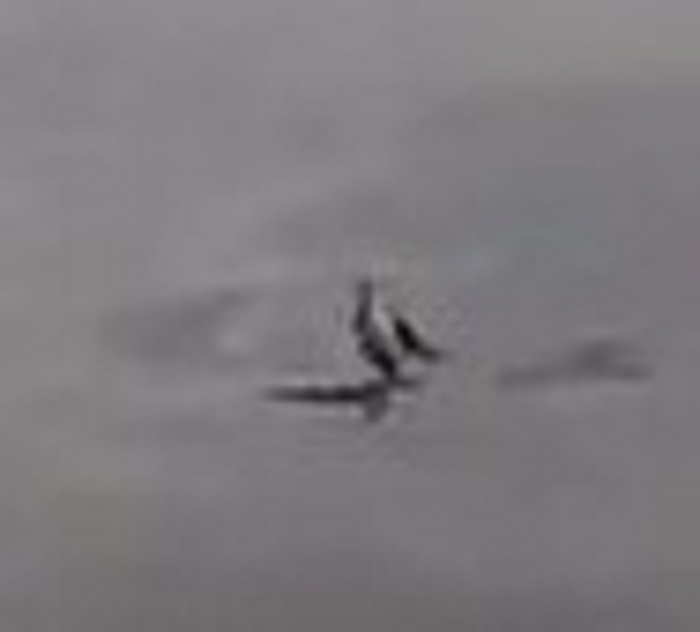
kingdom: Animalia
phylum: Chordata
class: Aves
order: Passeriformes
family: Icteridae
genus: Quiscalus
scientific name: Quiscalus major
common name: Boat-tailed grackle
